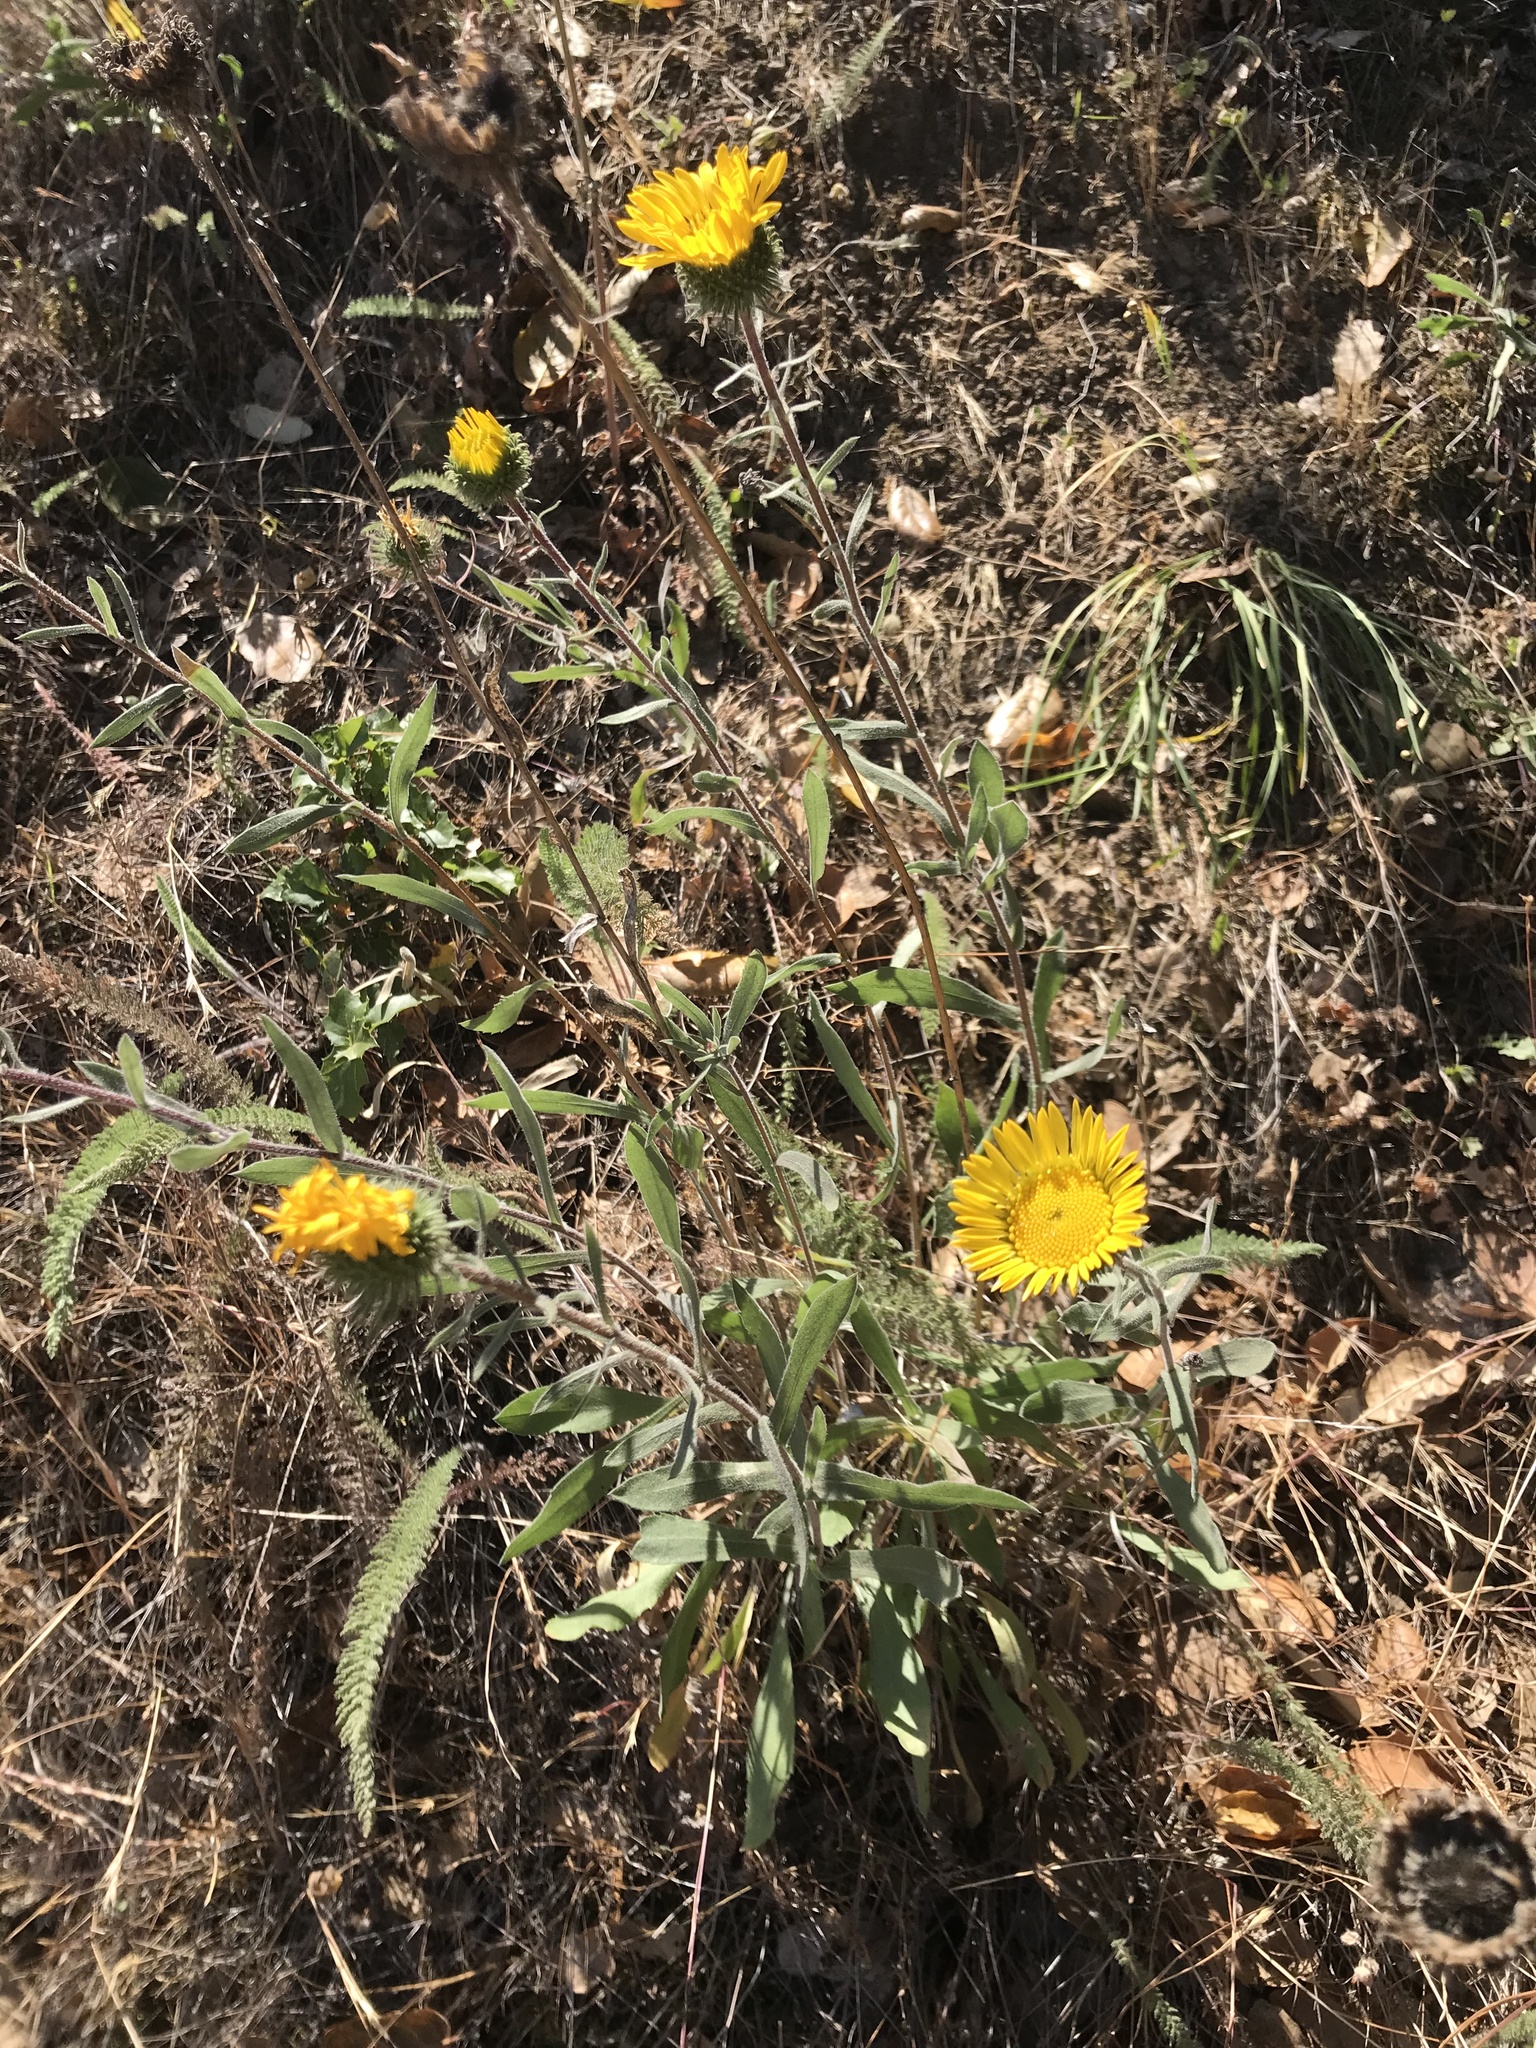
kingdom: Plantae
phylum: Tracheophyta
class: Magnoliopsida
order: Asterales
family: Asteraceae
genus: Grindelia
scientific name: Grindelia hirsutula
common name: Hairy gumweed
